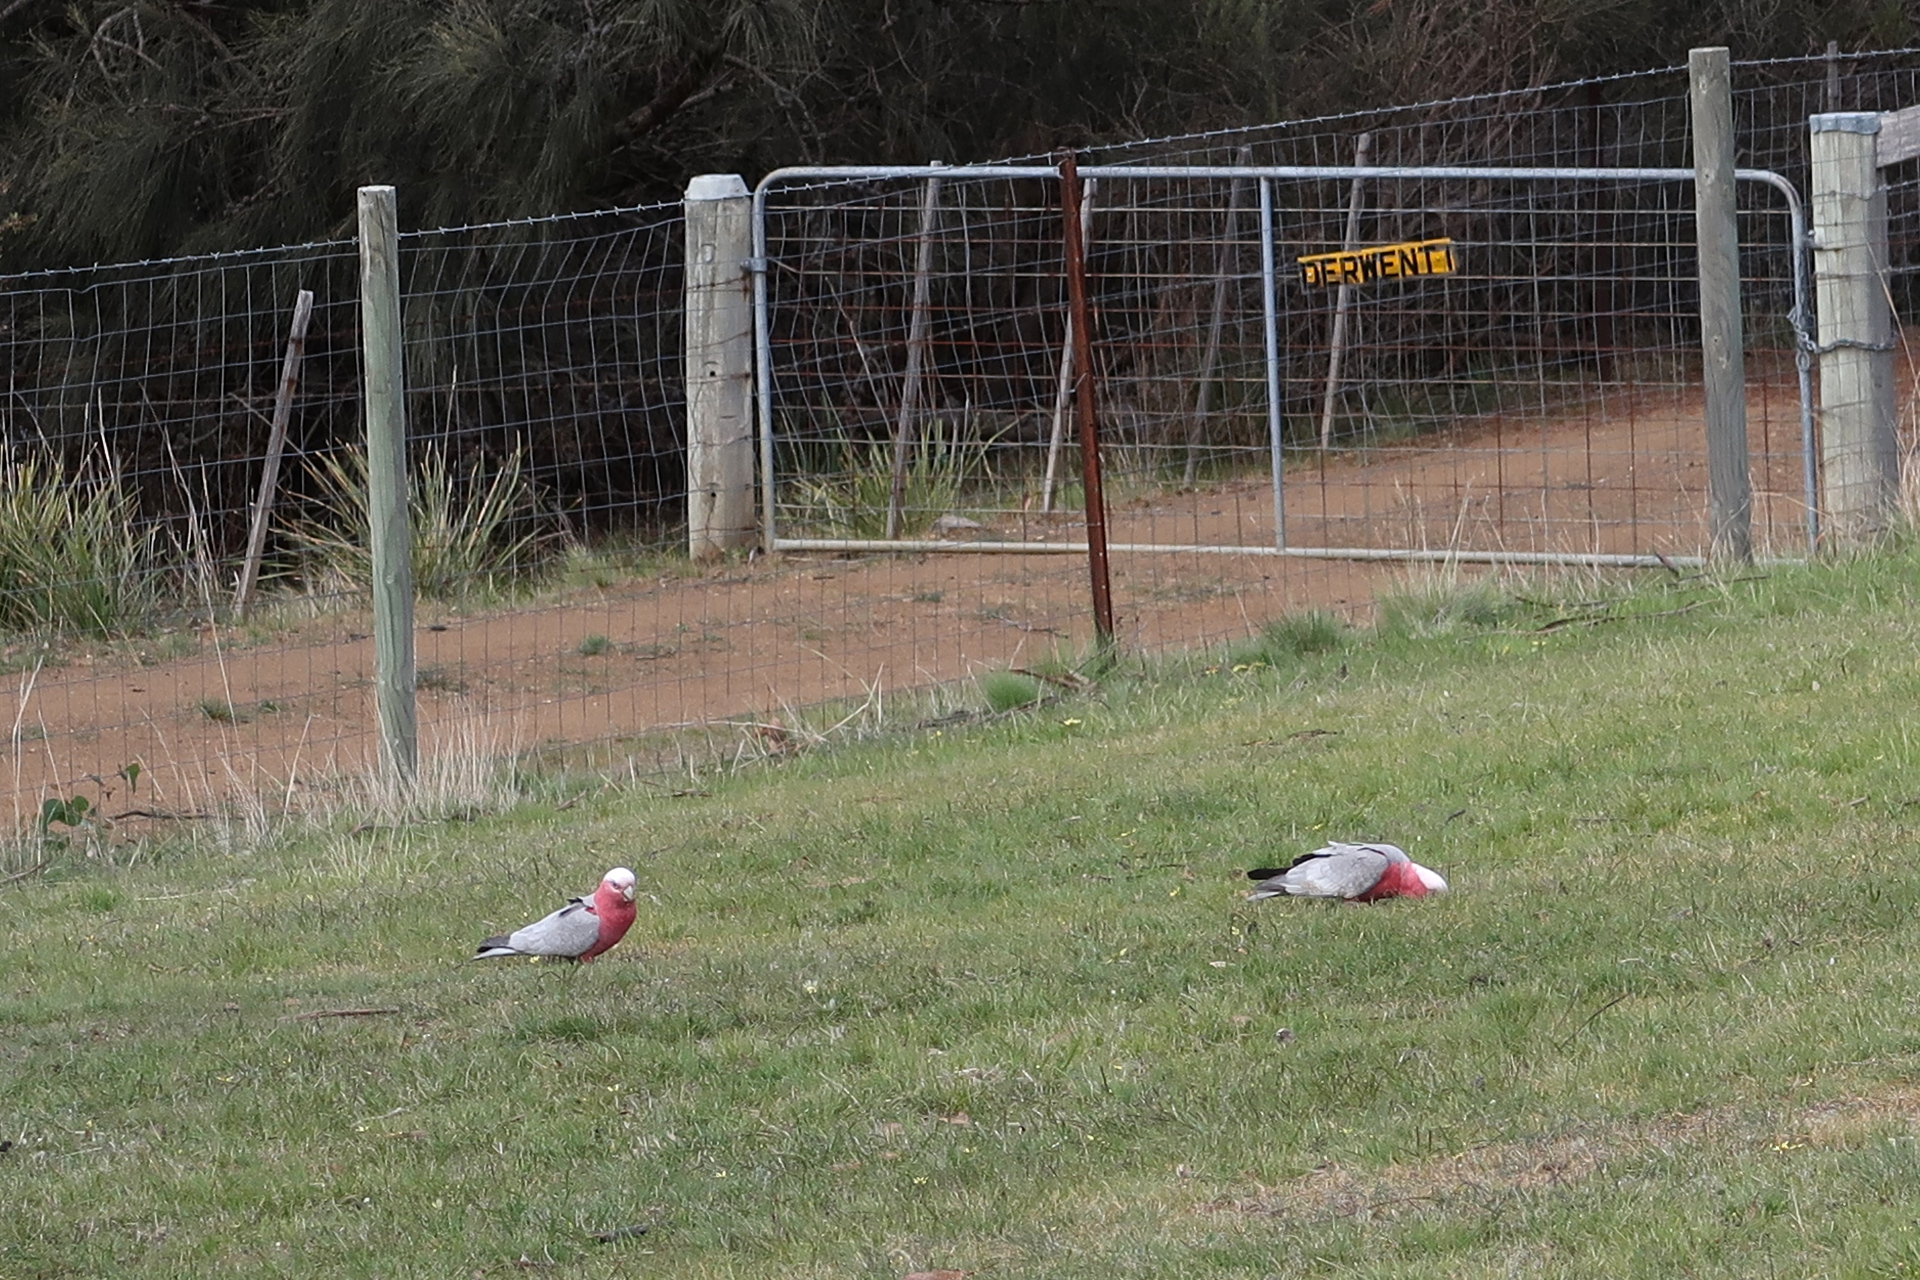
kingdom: Animalia
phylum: Chordata
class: Aves
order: Psittaciformes
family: Psittacidae
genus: Eolophus
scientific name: Eolophus roseicapilla
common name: Galah
